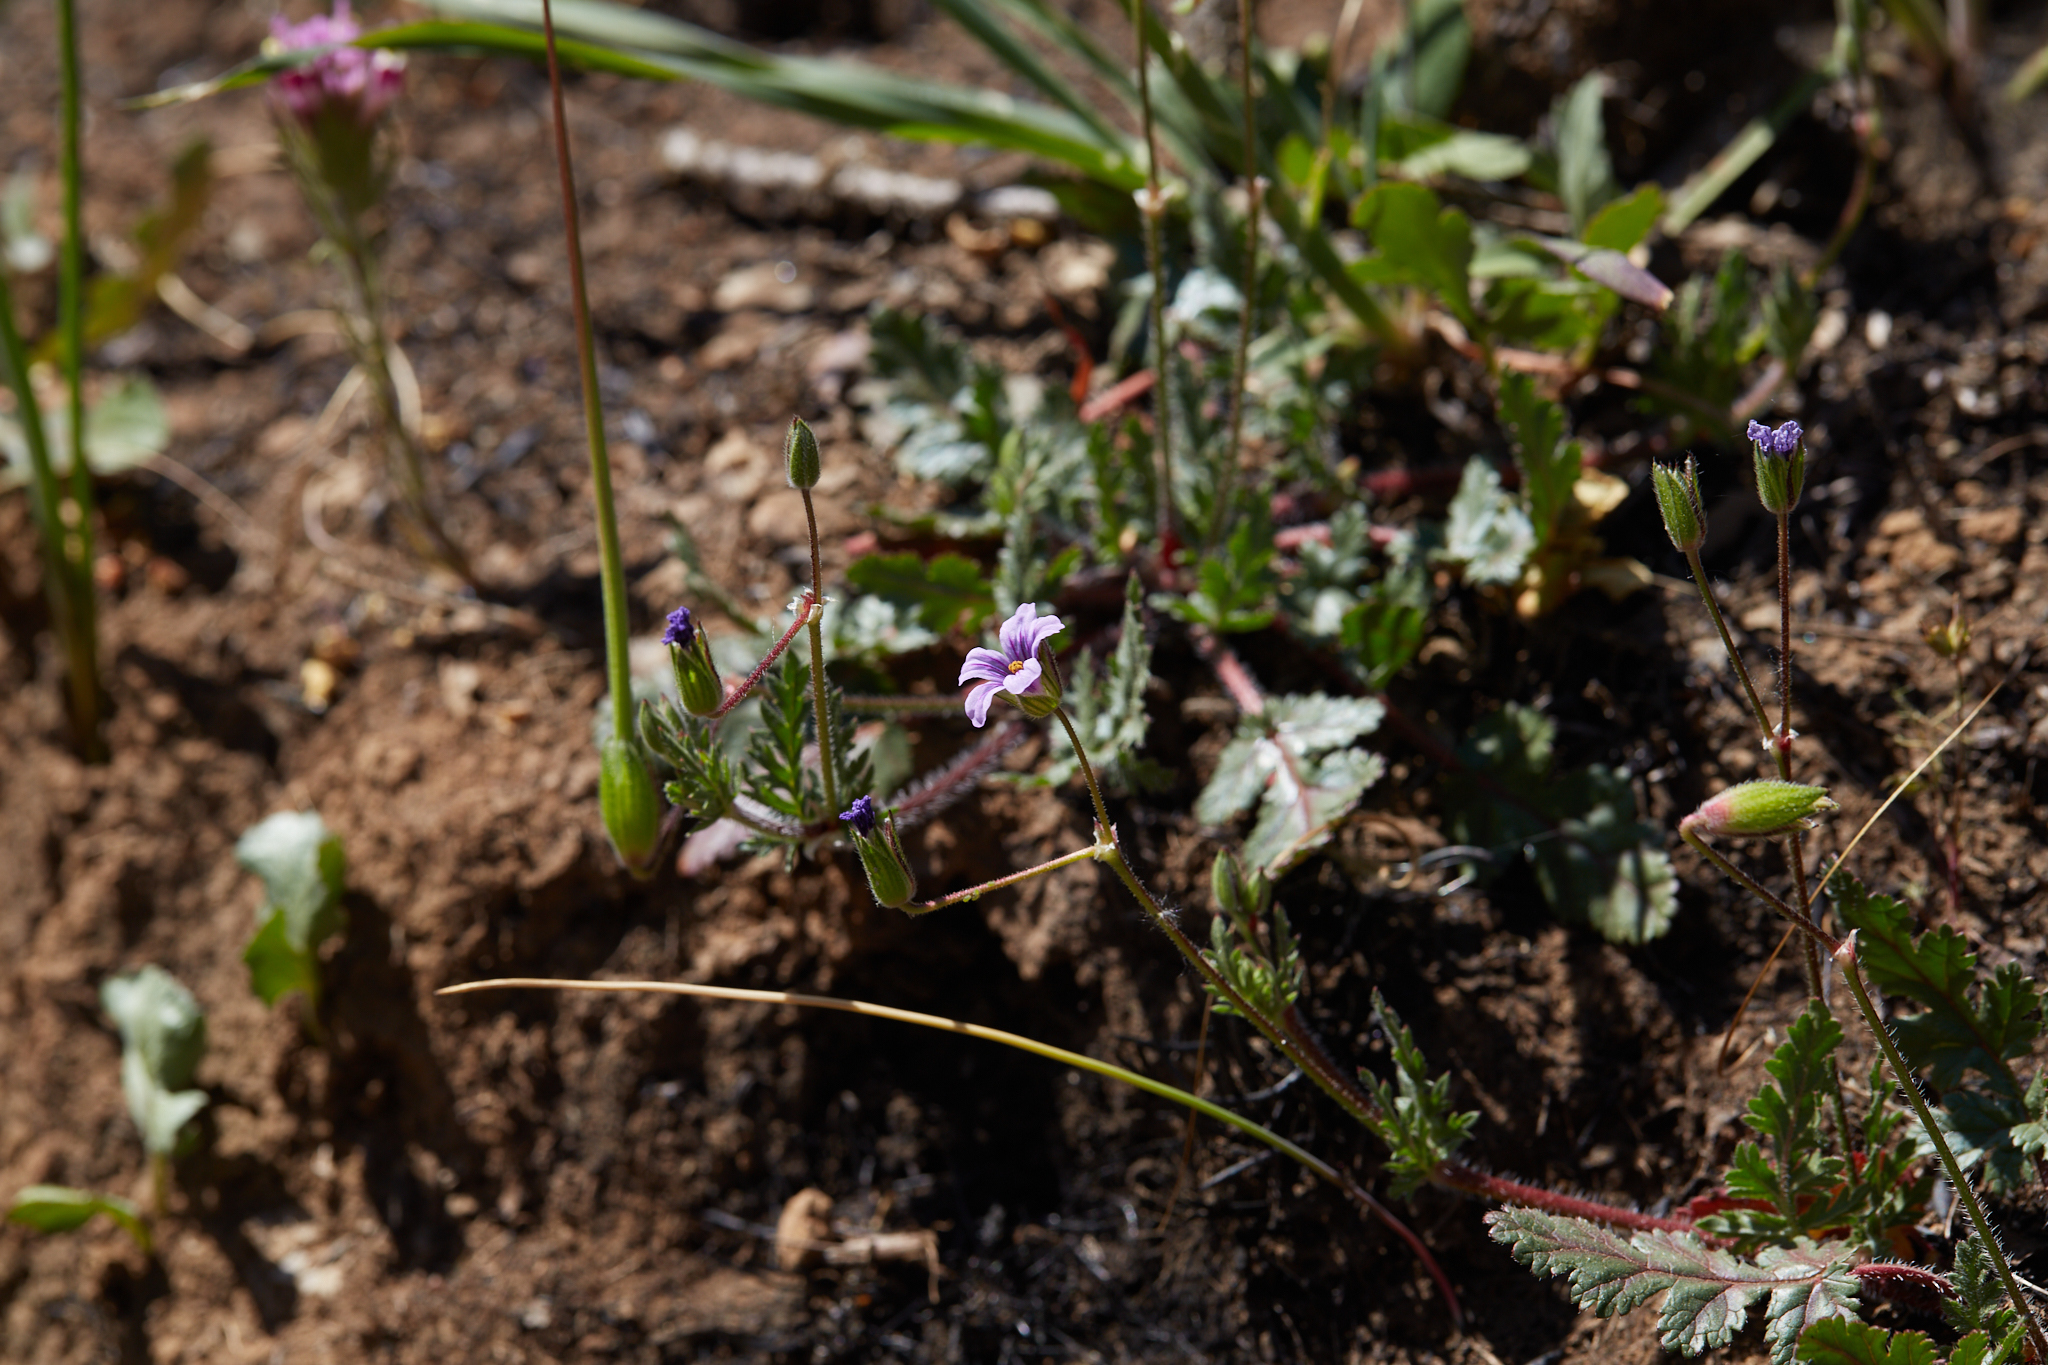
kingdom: Plantae
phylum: Tracheophyta
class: Magnoliopsida
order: Geraniales
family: Geraniaceae
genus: Erodium
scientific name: Erodium botrys
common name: Mediterranean stork's-bill
